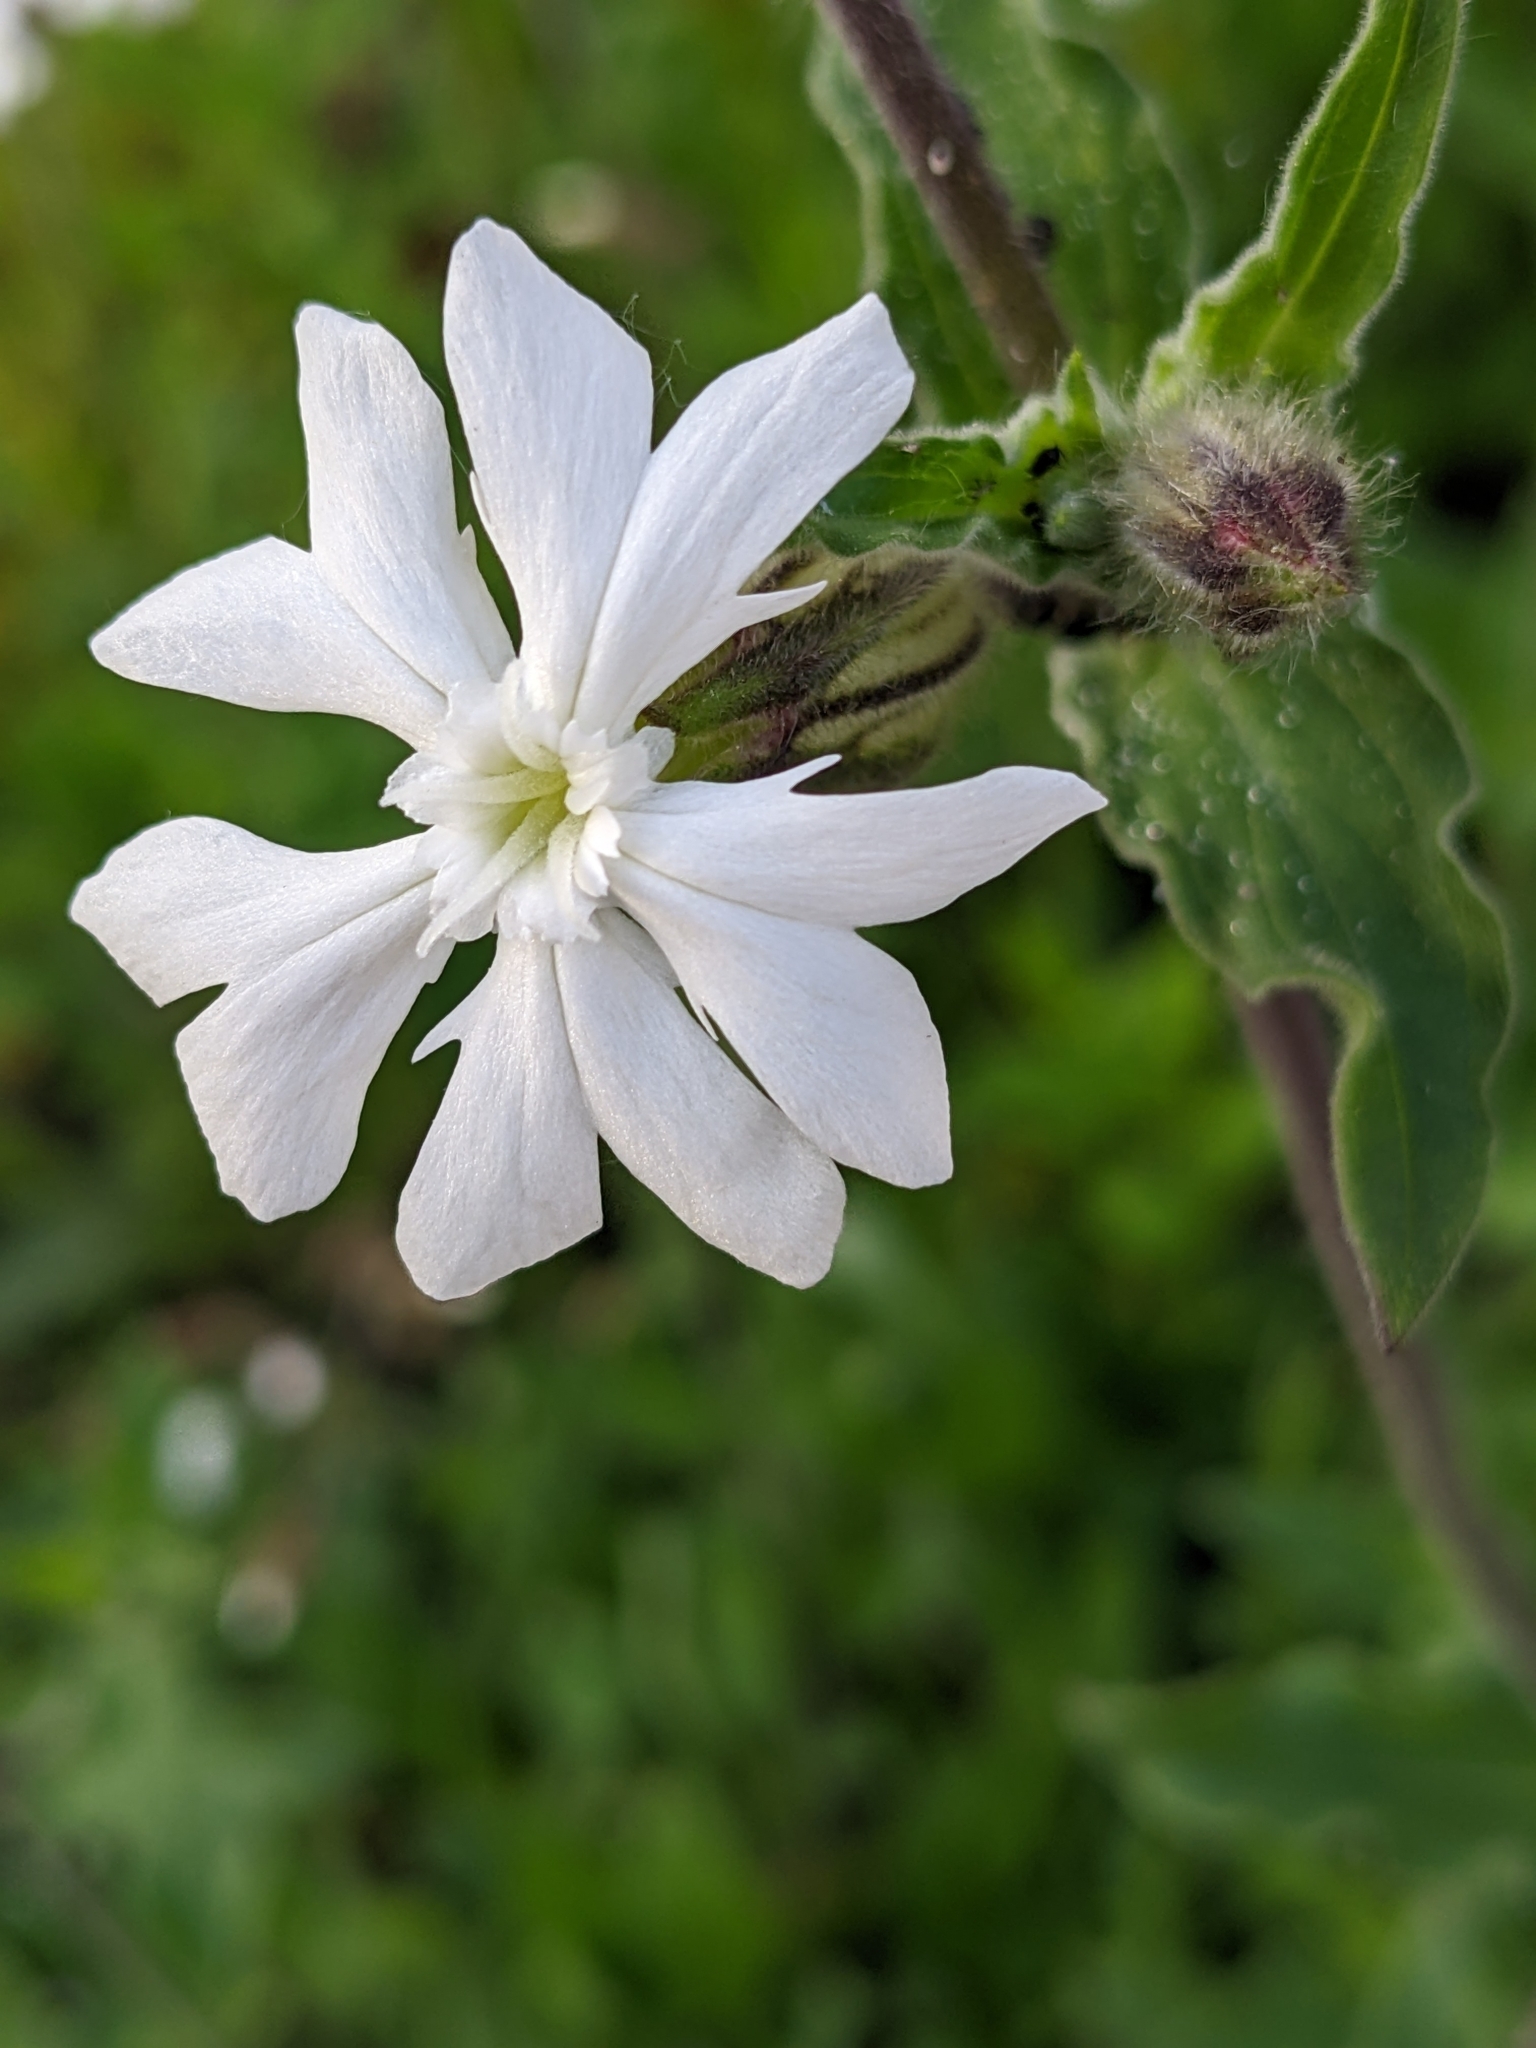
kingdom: Plantae
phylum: Tracheophyta
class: Magnoliopsida
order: Caryophyllales
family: Caryophyllaceae
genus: Silene
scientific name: Silene latifolia
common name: White campion
